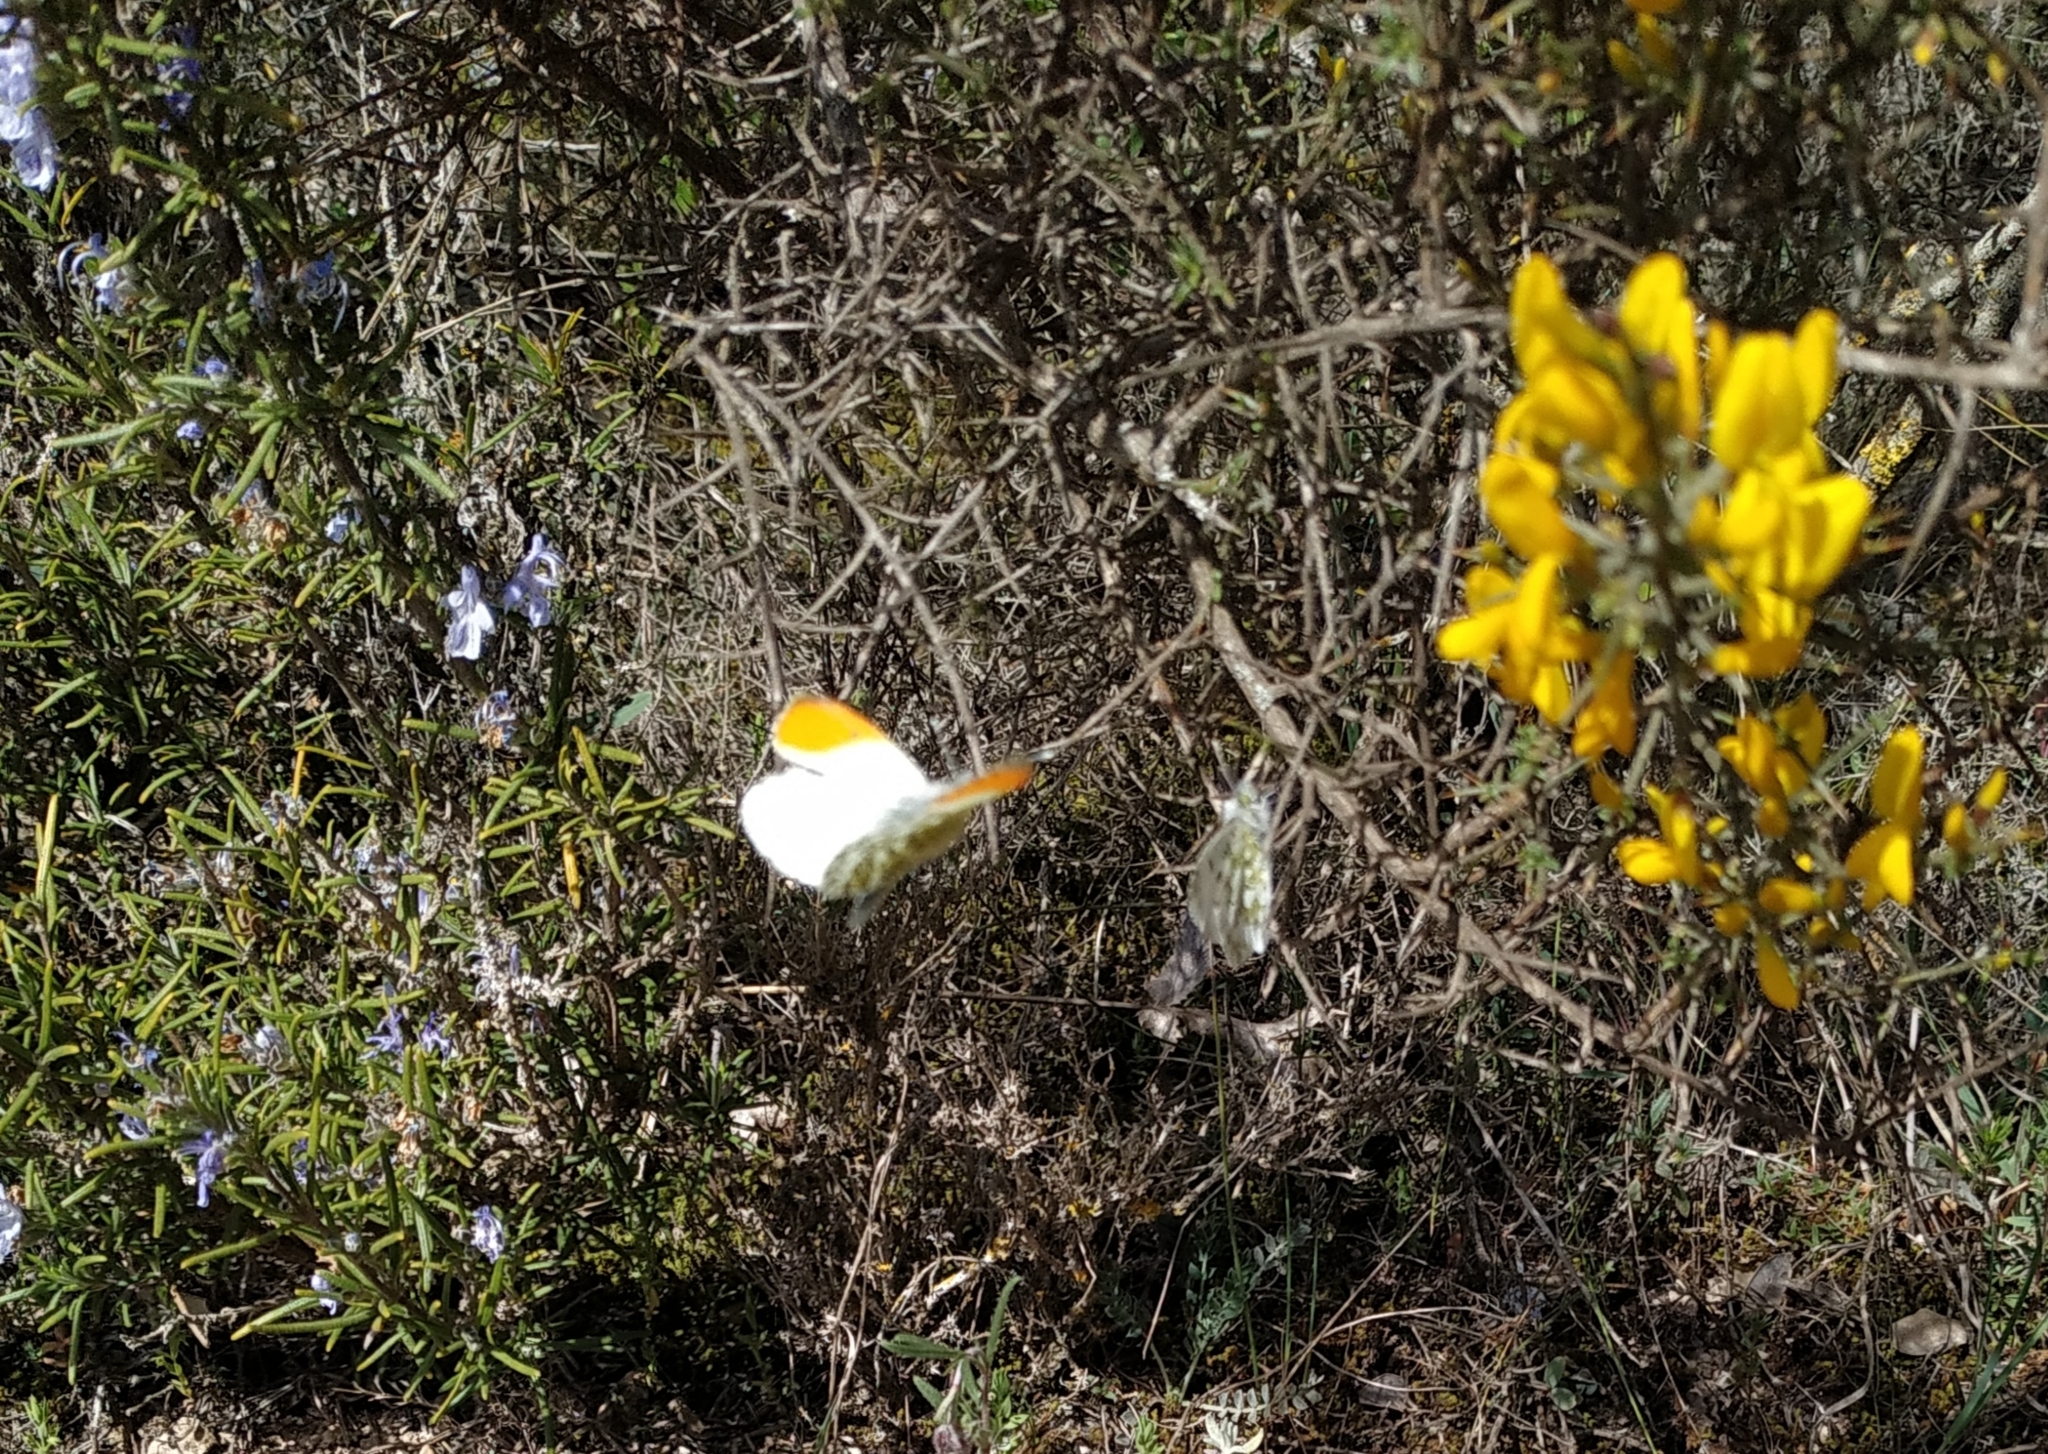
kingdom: Animalia
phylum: Arthropoda
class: Insecta
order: Lepidoptera
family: Pieridae
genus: Anthocharis
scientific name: Anthocharis cardamines
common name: Orange-tip
